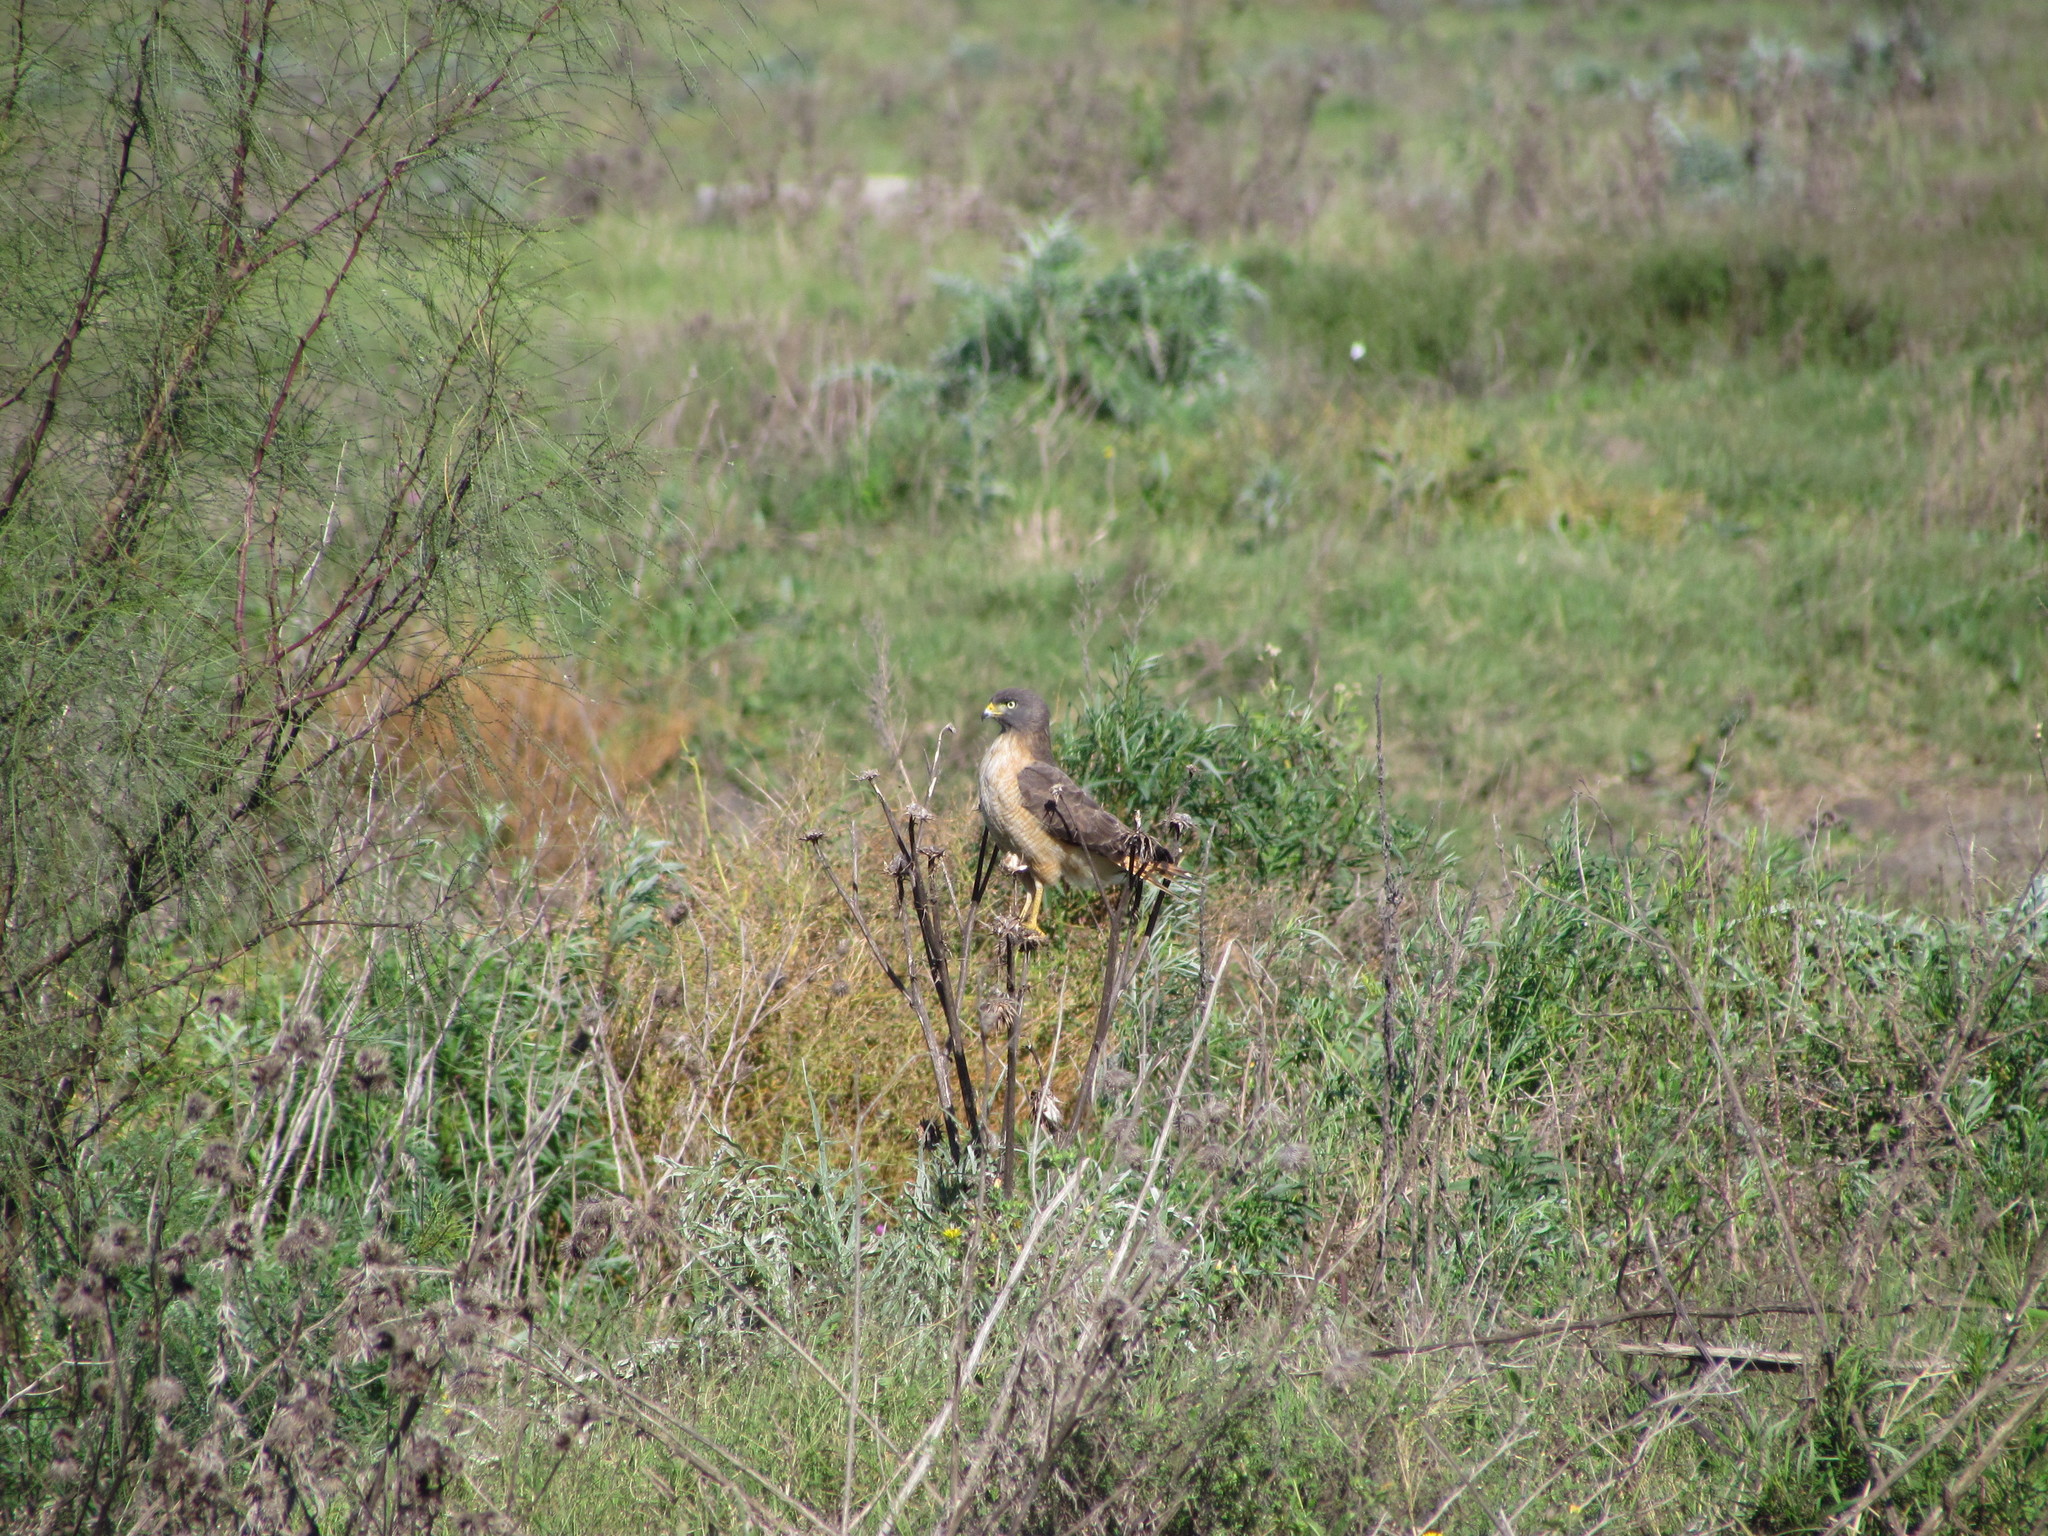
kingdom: Animalia
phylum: Chordata
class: Aves
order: Accipitriformes
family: Accipitridae
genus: Rupornis
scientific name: Rupornis magnirostris
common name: Roadside hawk
